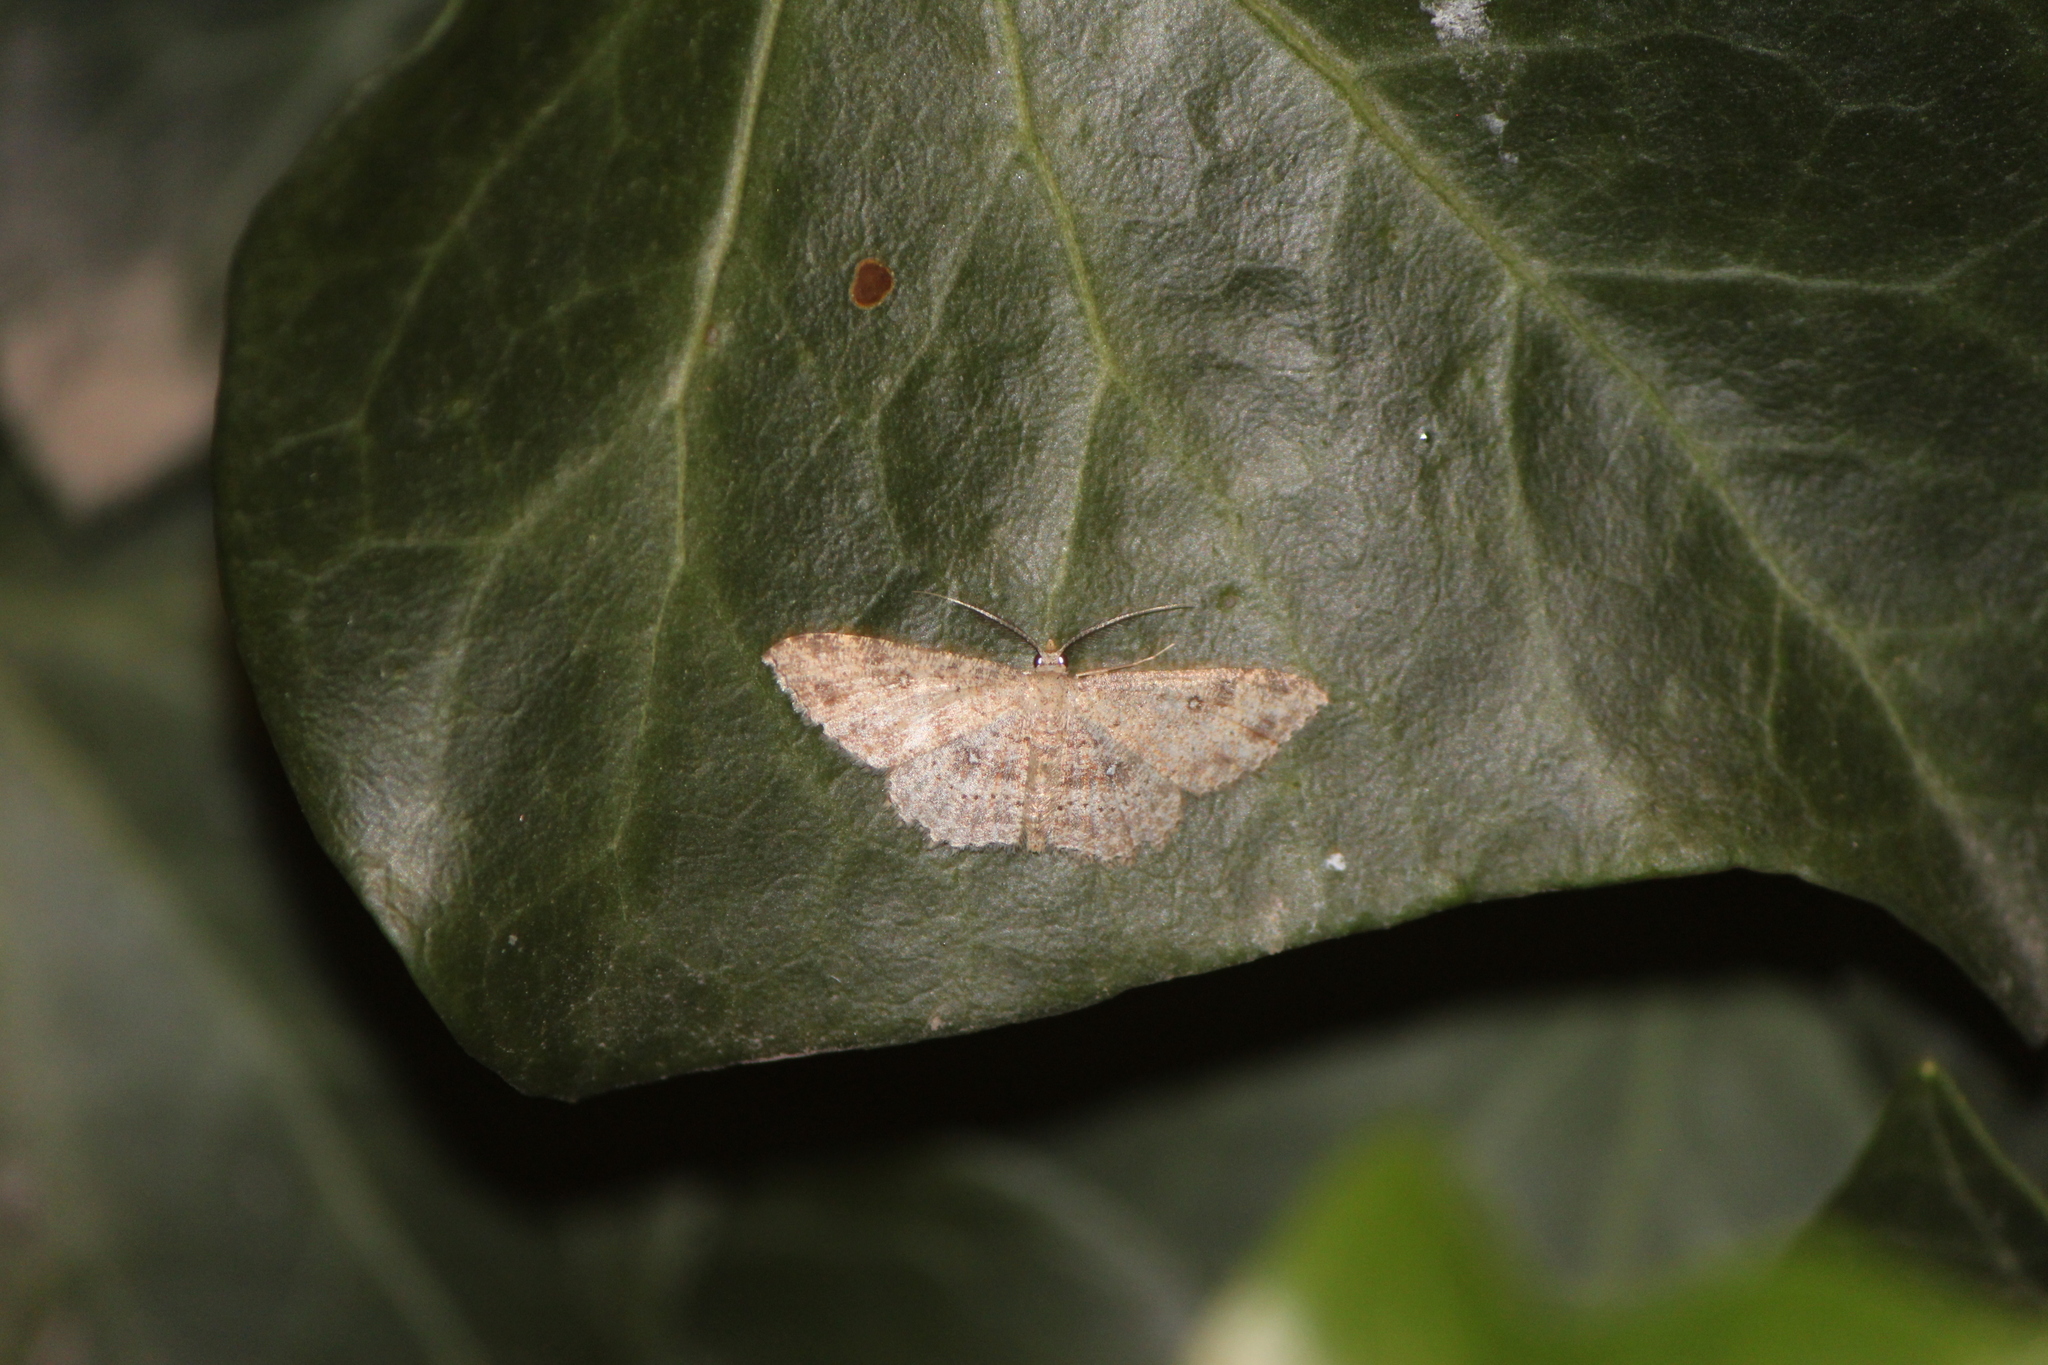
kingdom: Animalia
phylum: Arthropoda
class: Insecta
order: Lepidoptera
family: Geometridae
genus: Cyclophora
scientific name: Cyclophora nanaria
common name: Cankerworm
